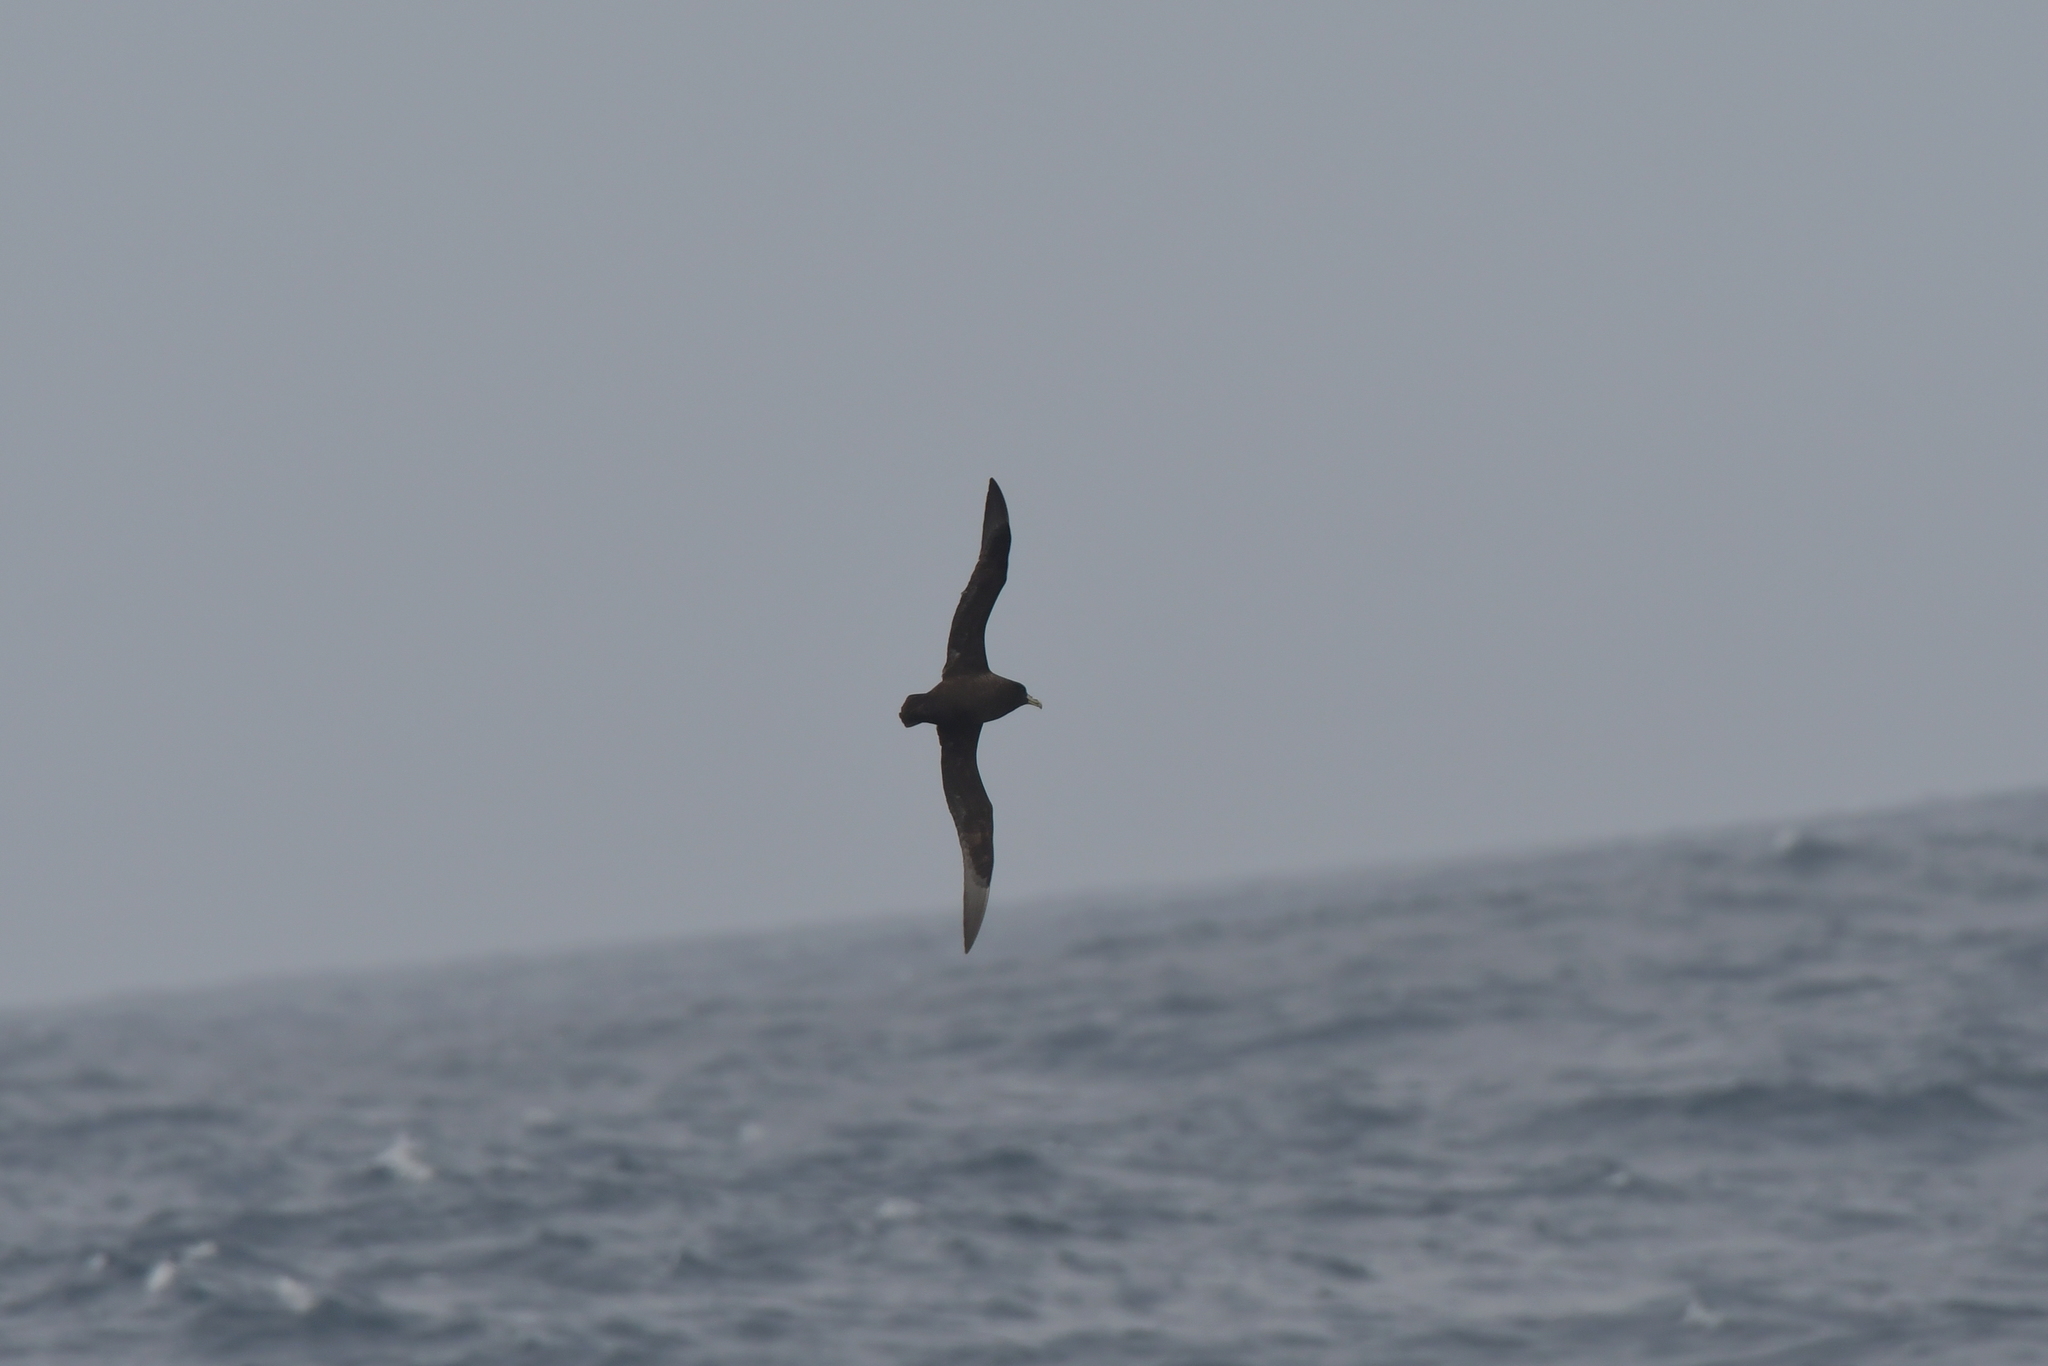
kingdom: Animalia
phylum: Chordata
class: Aves
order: Procellariiformes
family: Procellariidae
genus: Procellaria
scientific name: Procellaria aequinoctialis
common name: White-chinned petrel
